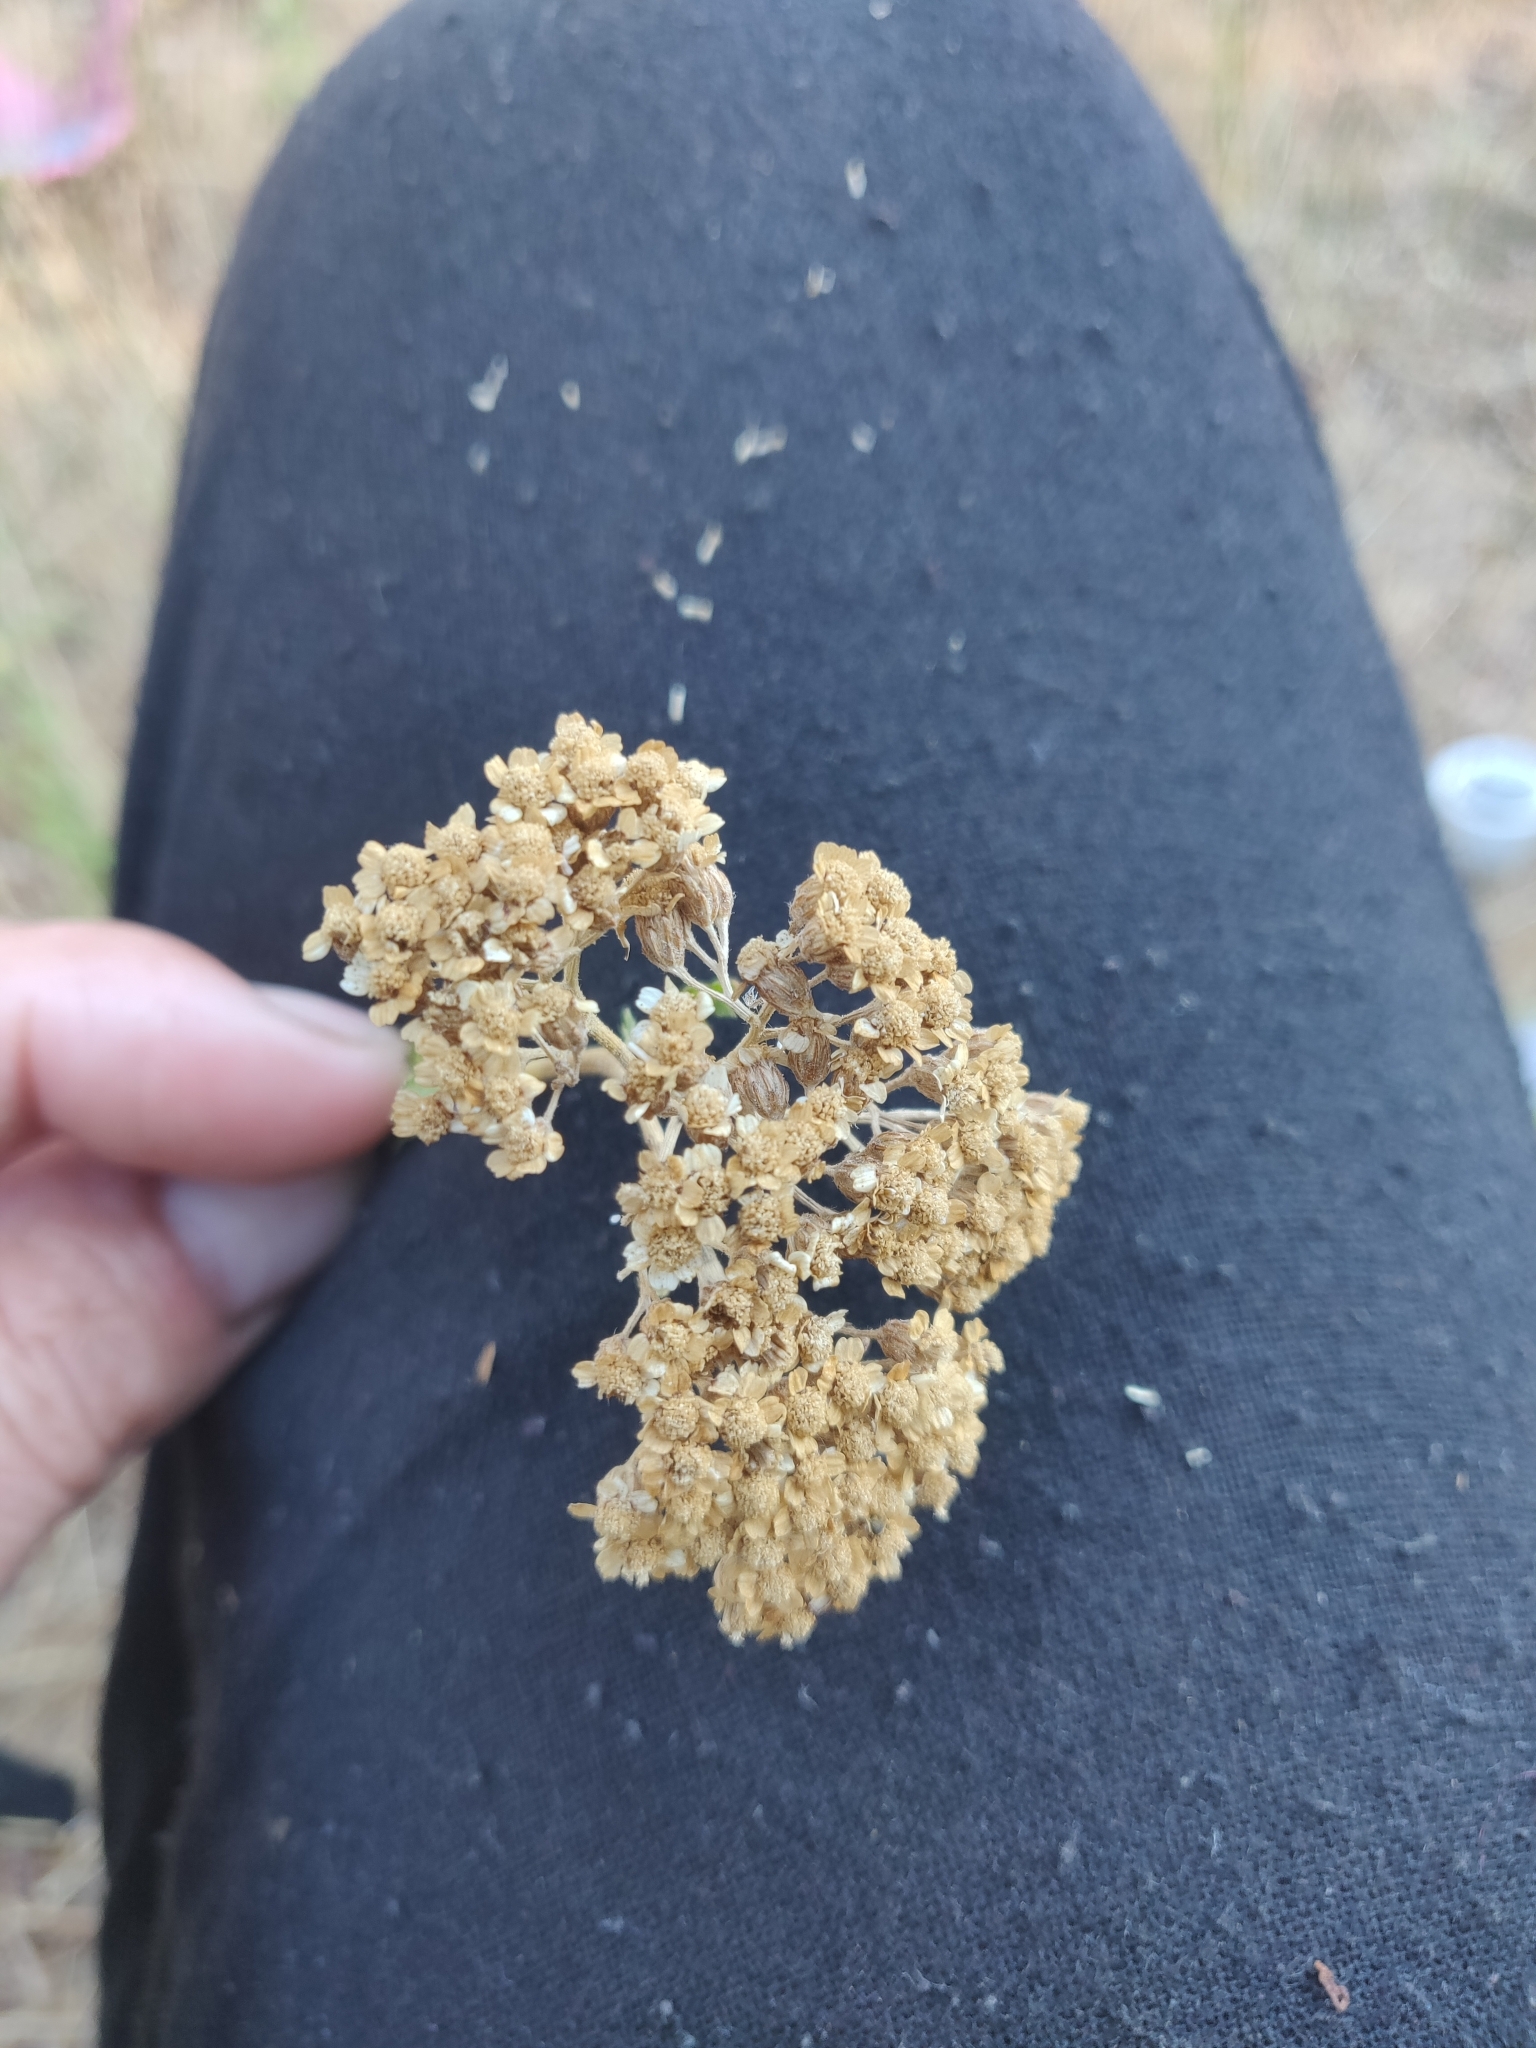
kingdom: Plantae
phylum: Tracheophyta
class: Magnoliopsida
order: Asterales
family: Asteraceae
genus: Achillea
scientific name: Achillea ligustica
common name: Southern yarrow
